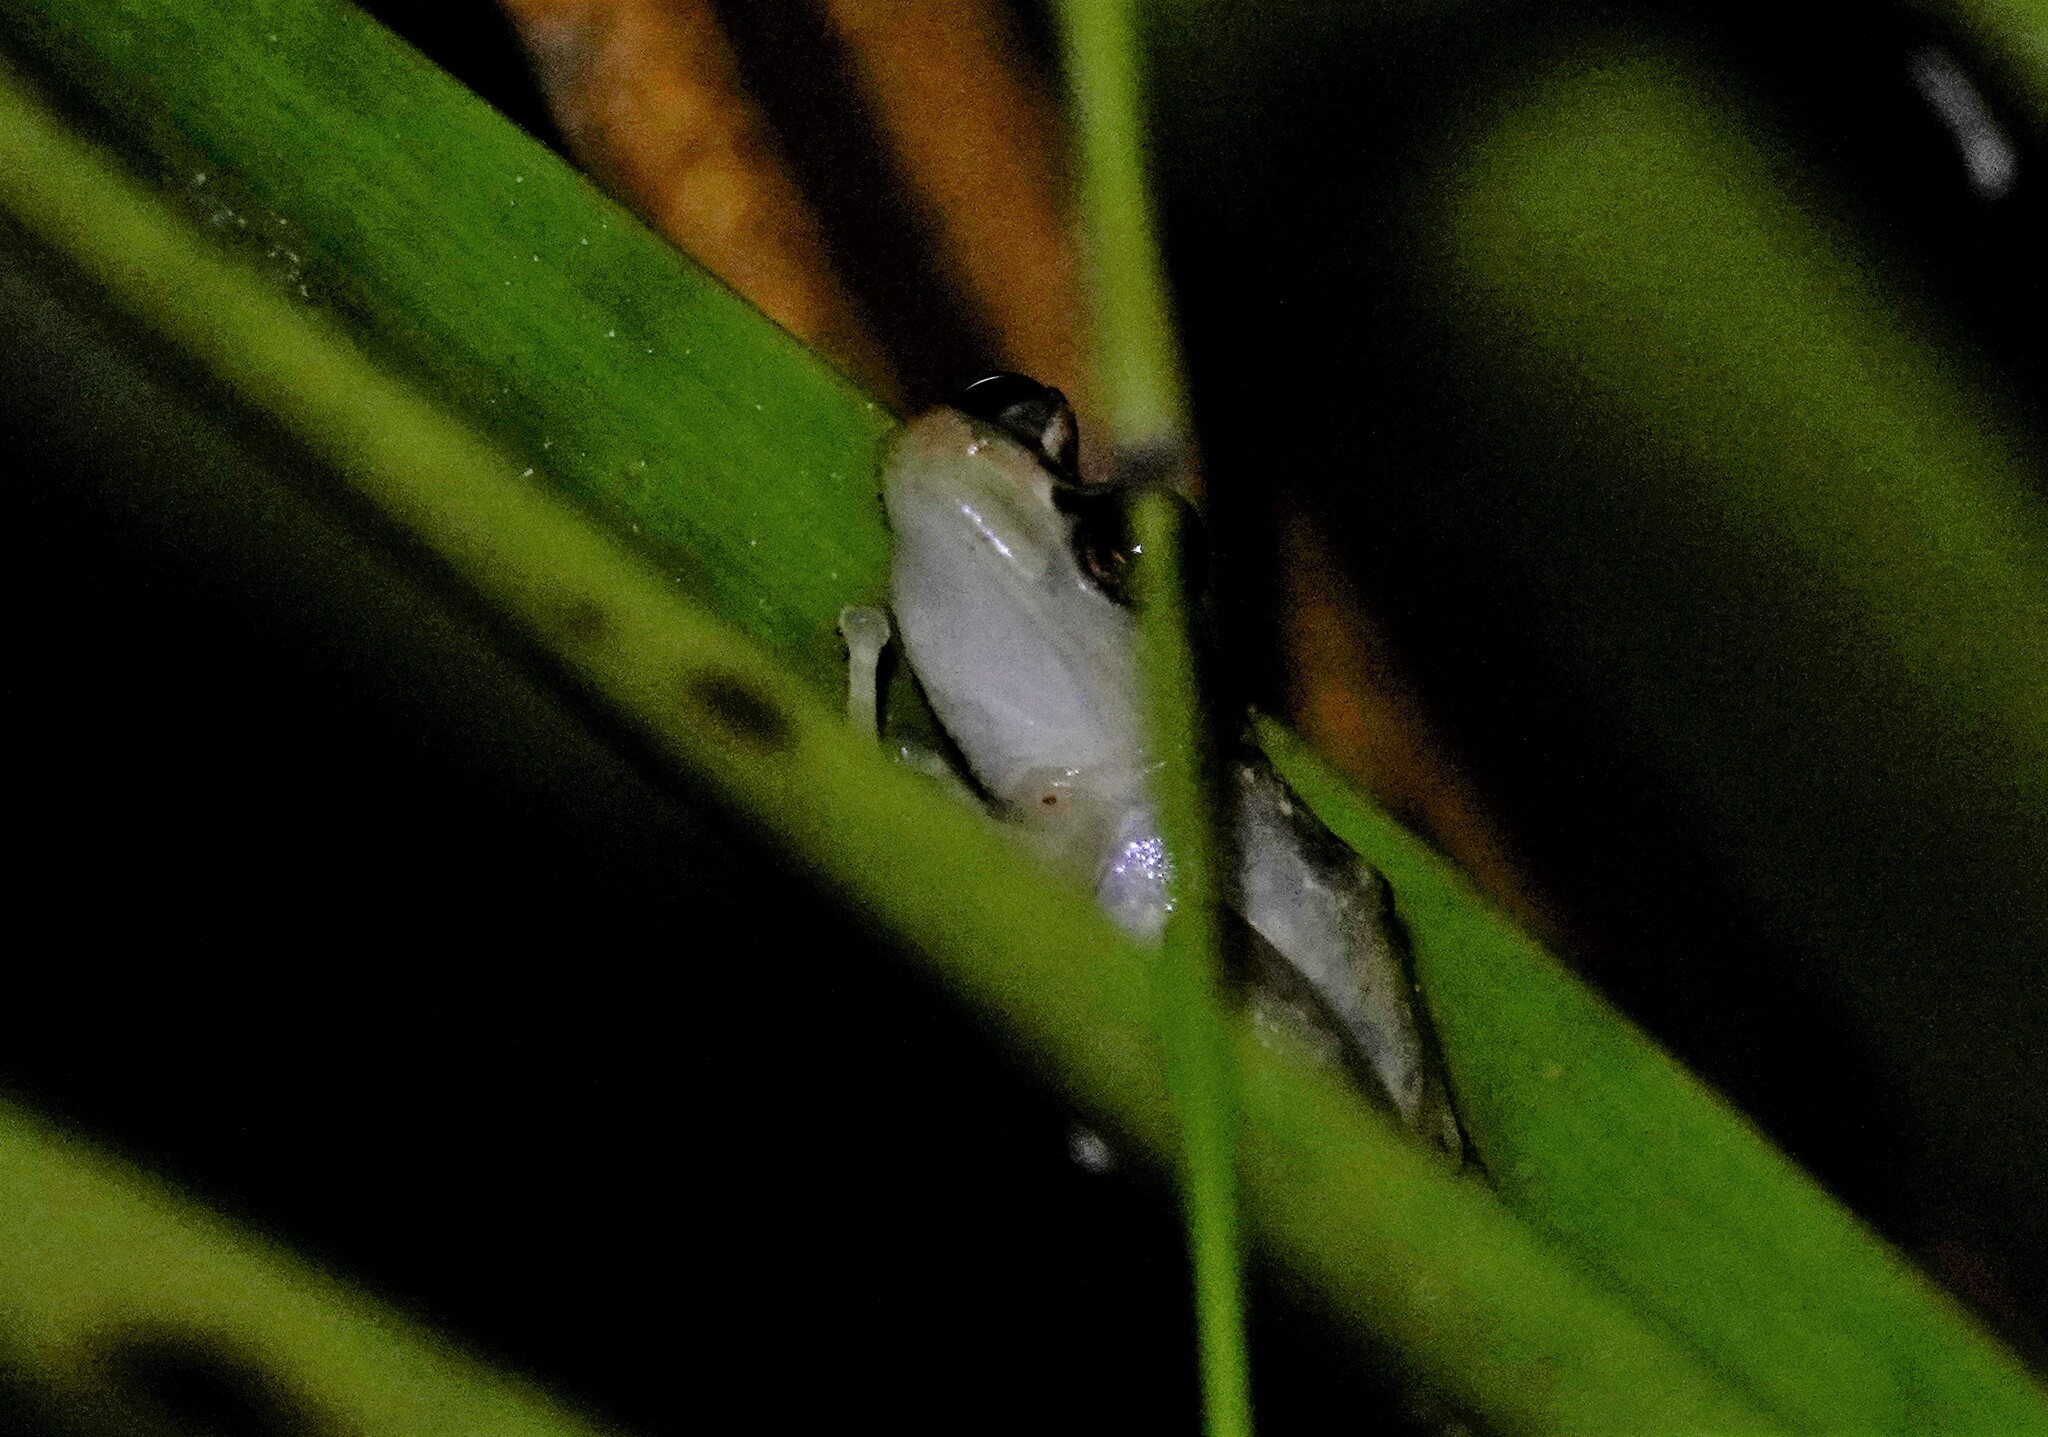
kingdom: Animalia
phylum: Chordata
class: Amphibia
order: Anura
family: Craugastoridae
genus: Tachiramantis
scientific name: Tachiramantis
